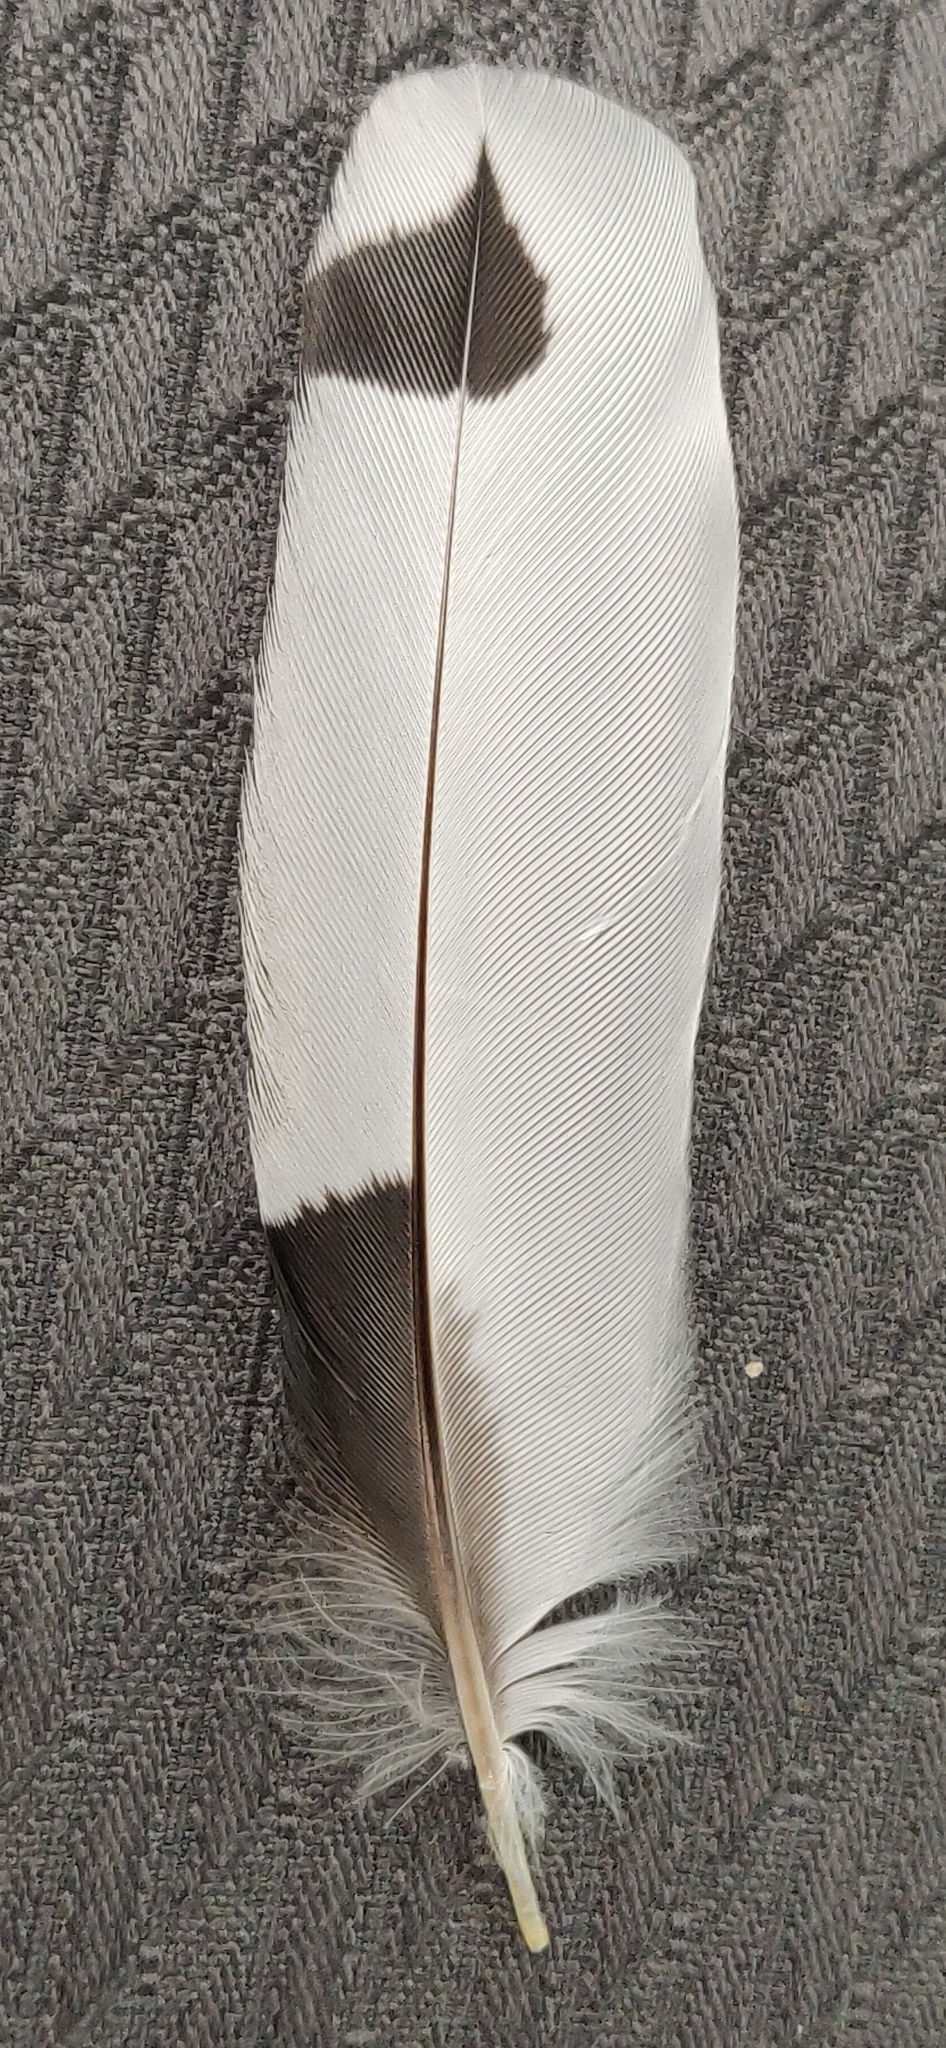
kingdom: Animalia
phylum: Chordata
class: Aves
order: Piciformes
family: Picidae
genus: Melanerpes
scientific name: Melanerpes erythrocephalus
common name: Red-headed woodpecker
